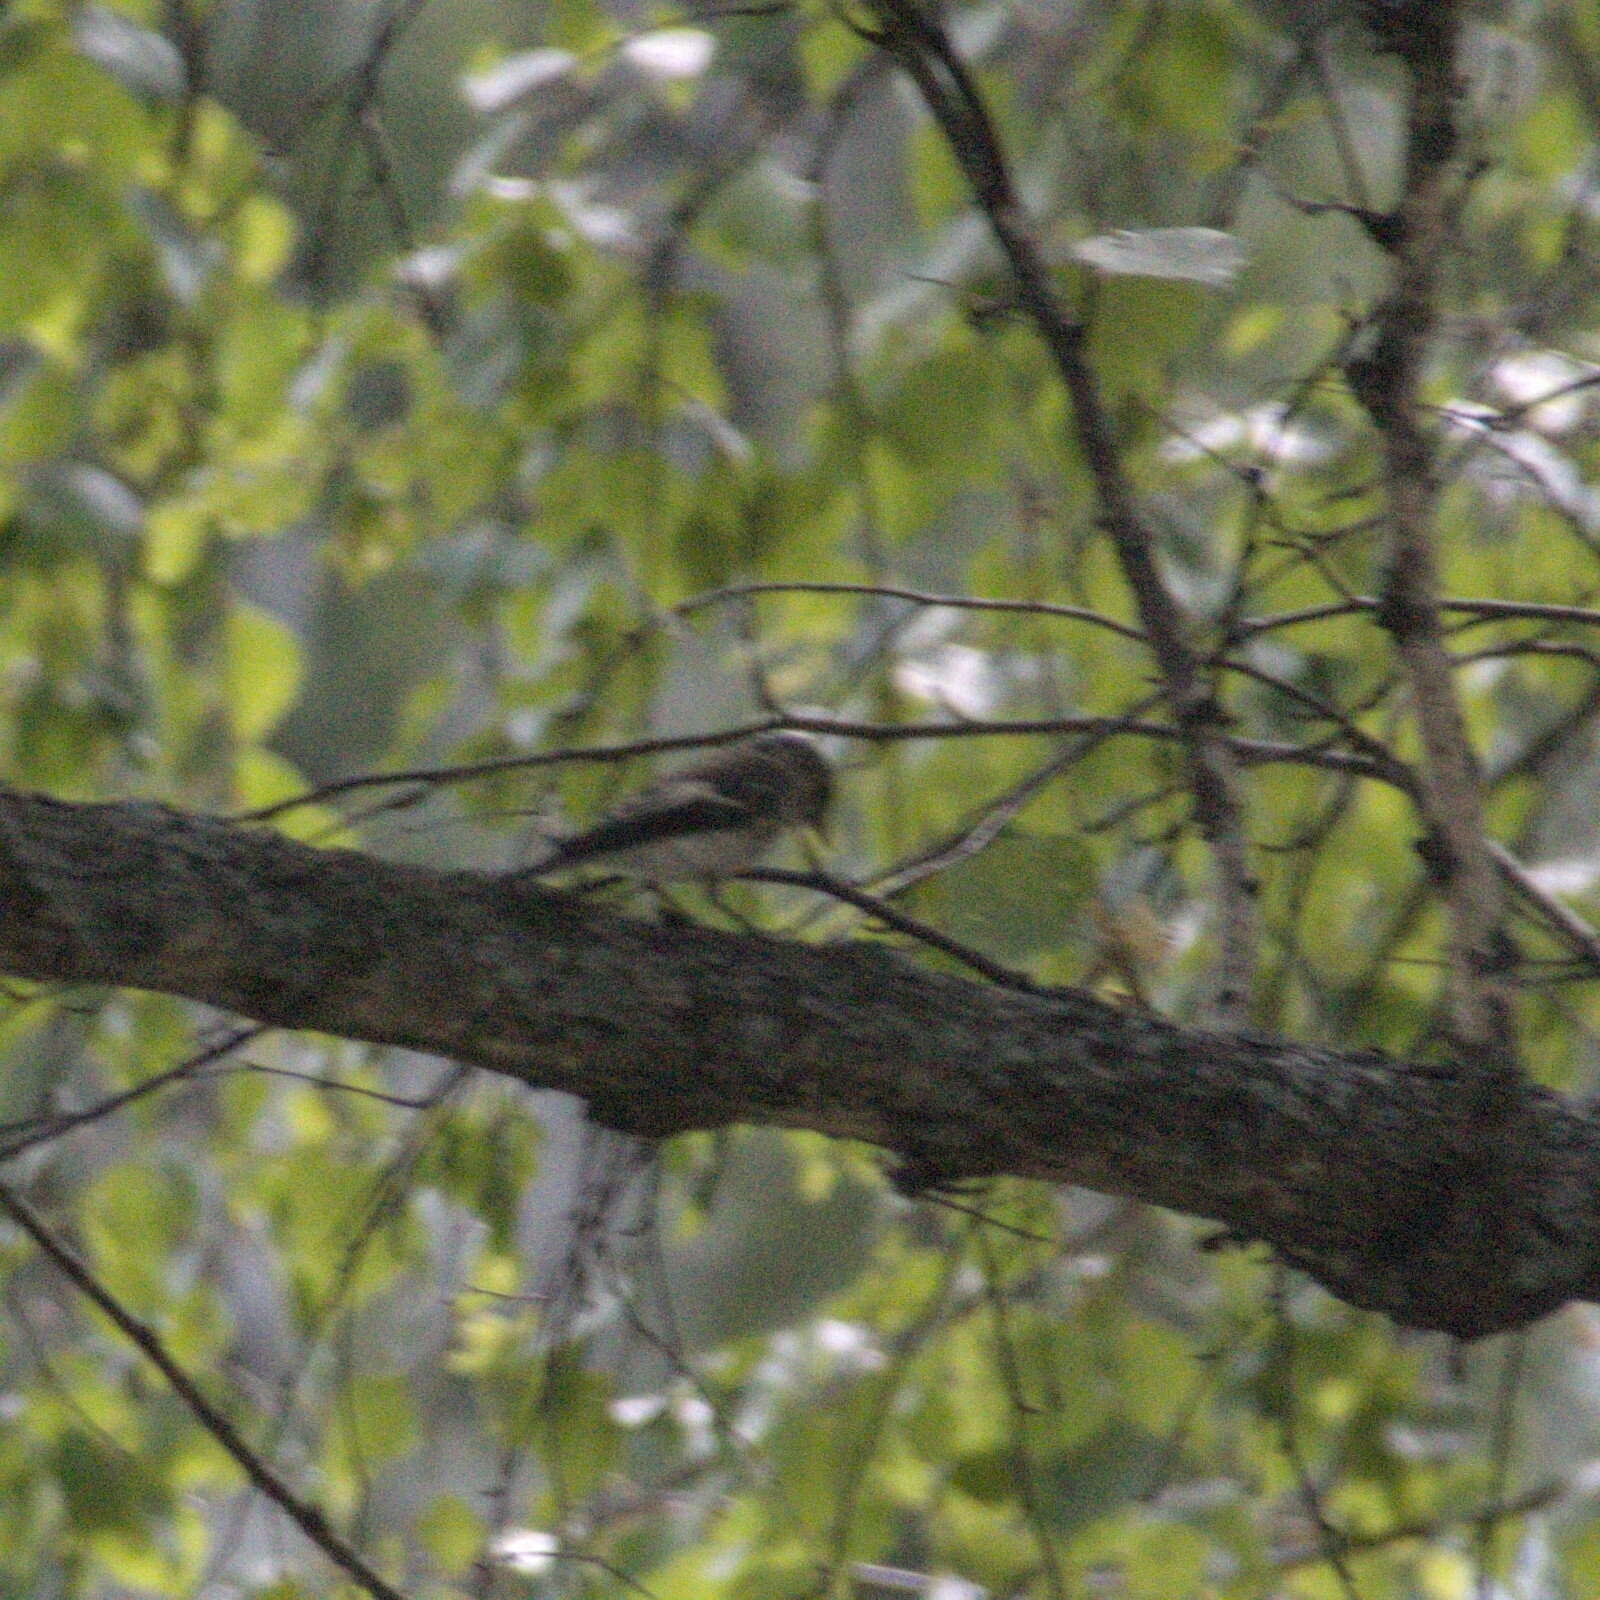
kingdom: Animalia
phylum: Chordata
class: Aves
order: Passeriformes
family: Muscicapidae
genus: Muscicapa
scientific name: Muscicapa striata
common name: Spotted flycatcher
